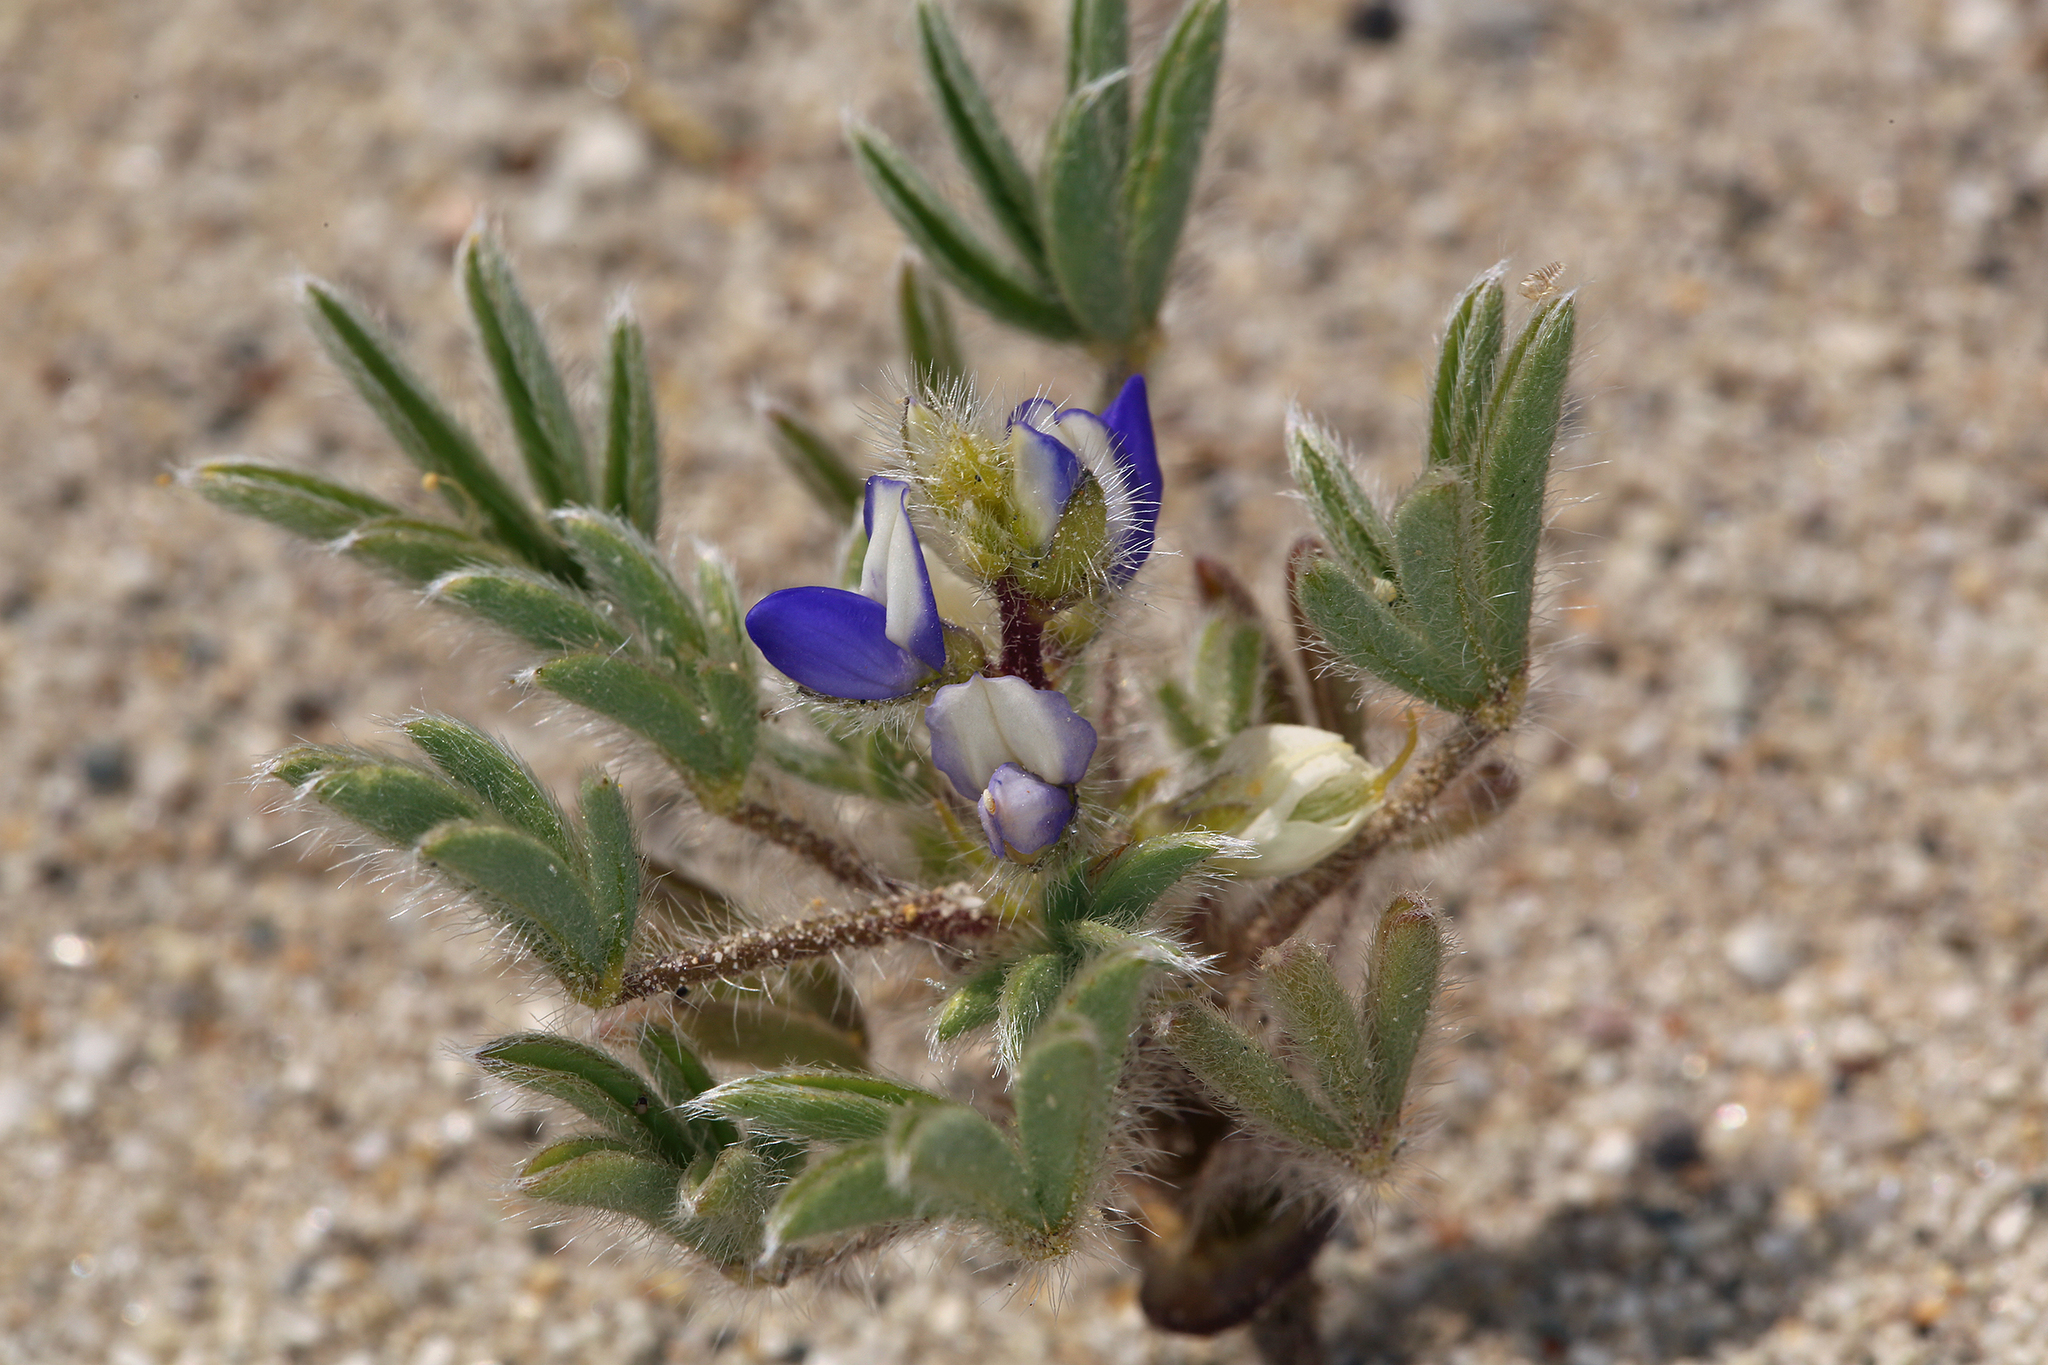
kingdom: Plantae
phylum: Tracheophyta
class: Magnoliopsida
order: Fabales
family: Fabaceae
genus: Lupinus
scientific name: Lupinus pusillus
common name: Low lupine
